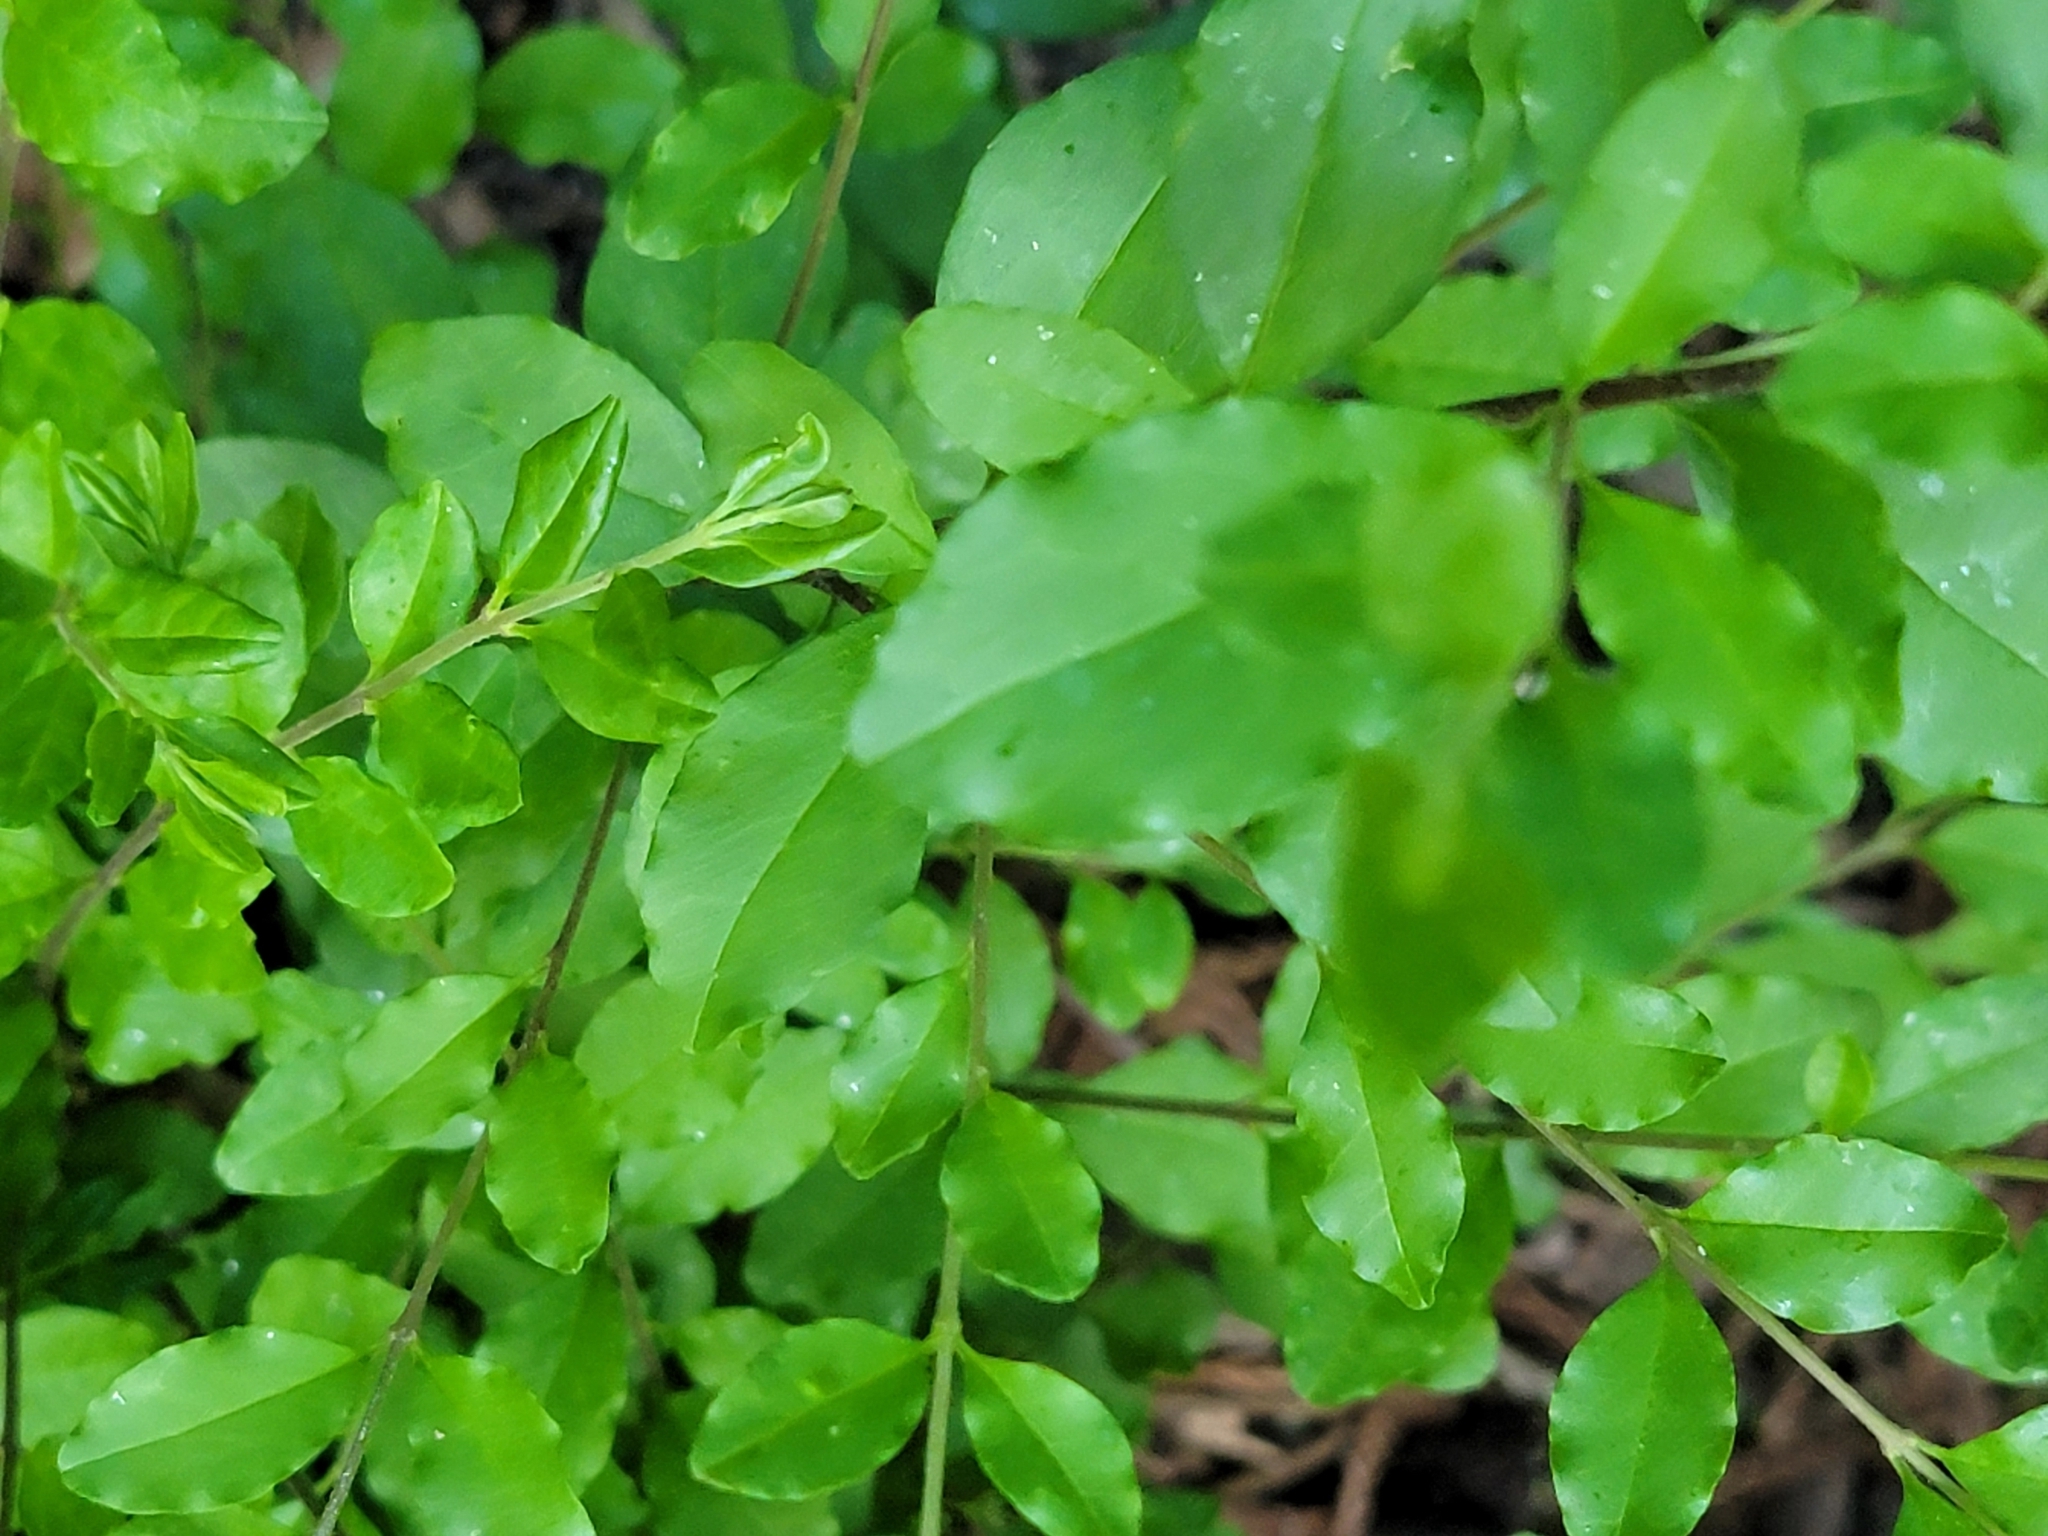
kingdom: Plantae
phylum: Tracheophyta
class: Magnoliopsida
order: Lamiales
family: Oleaceae
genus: Ligustrum
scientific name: Ligustrum sinense
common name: Chinese privet
